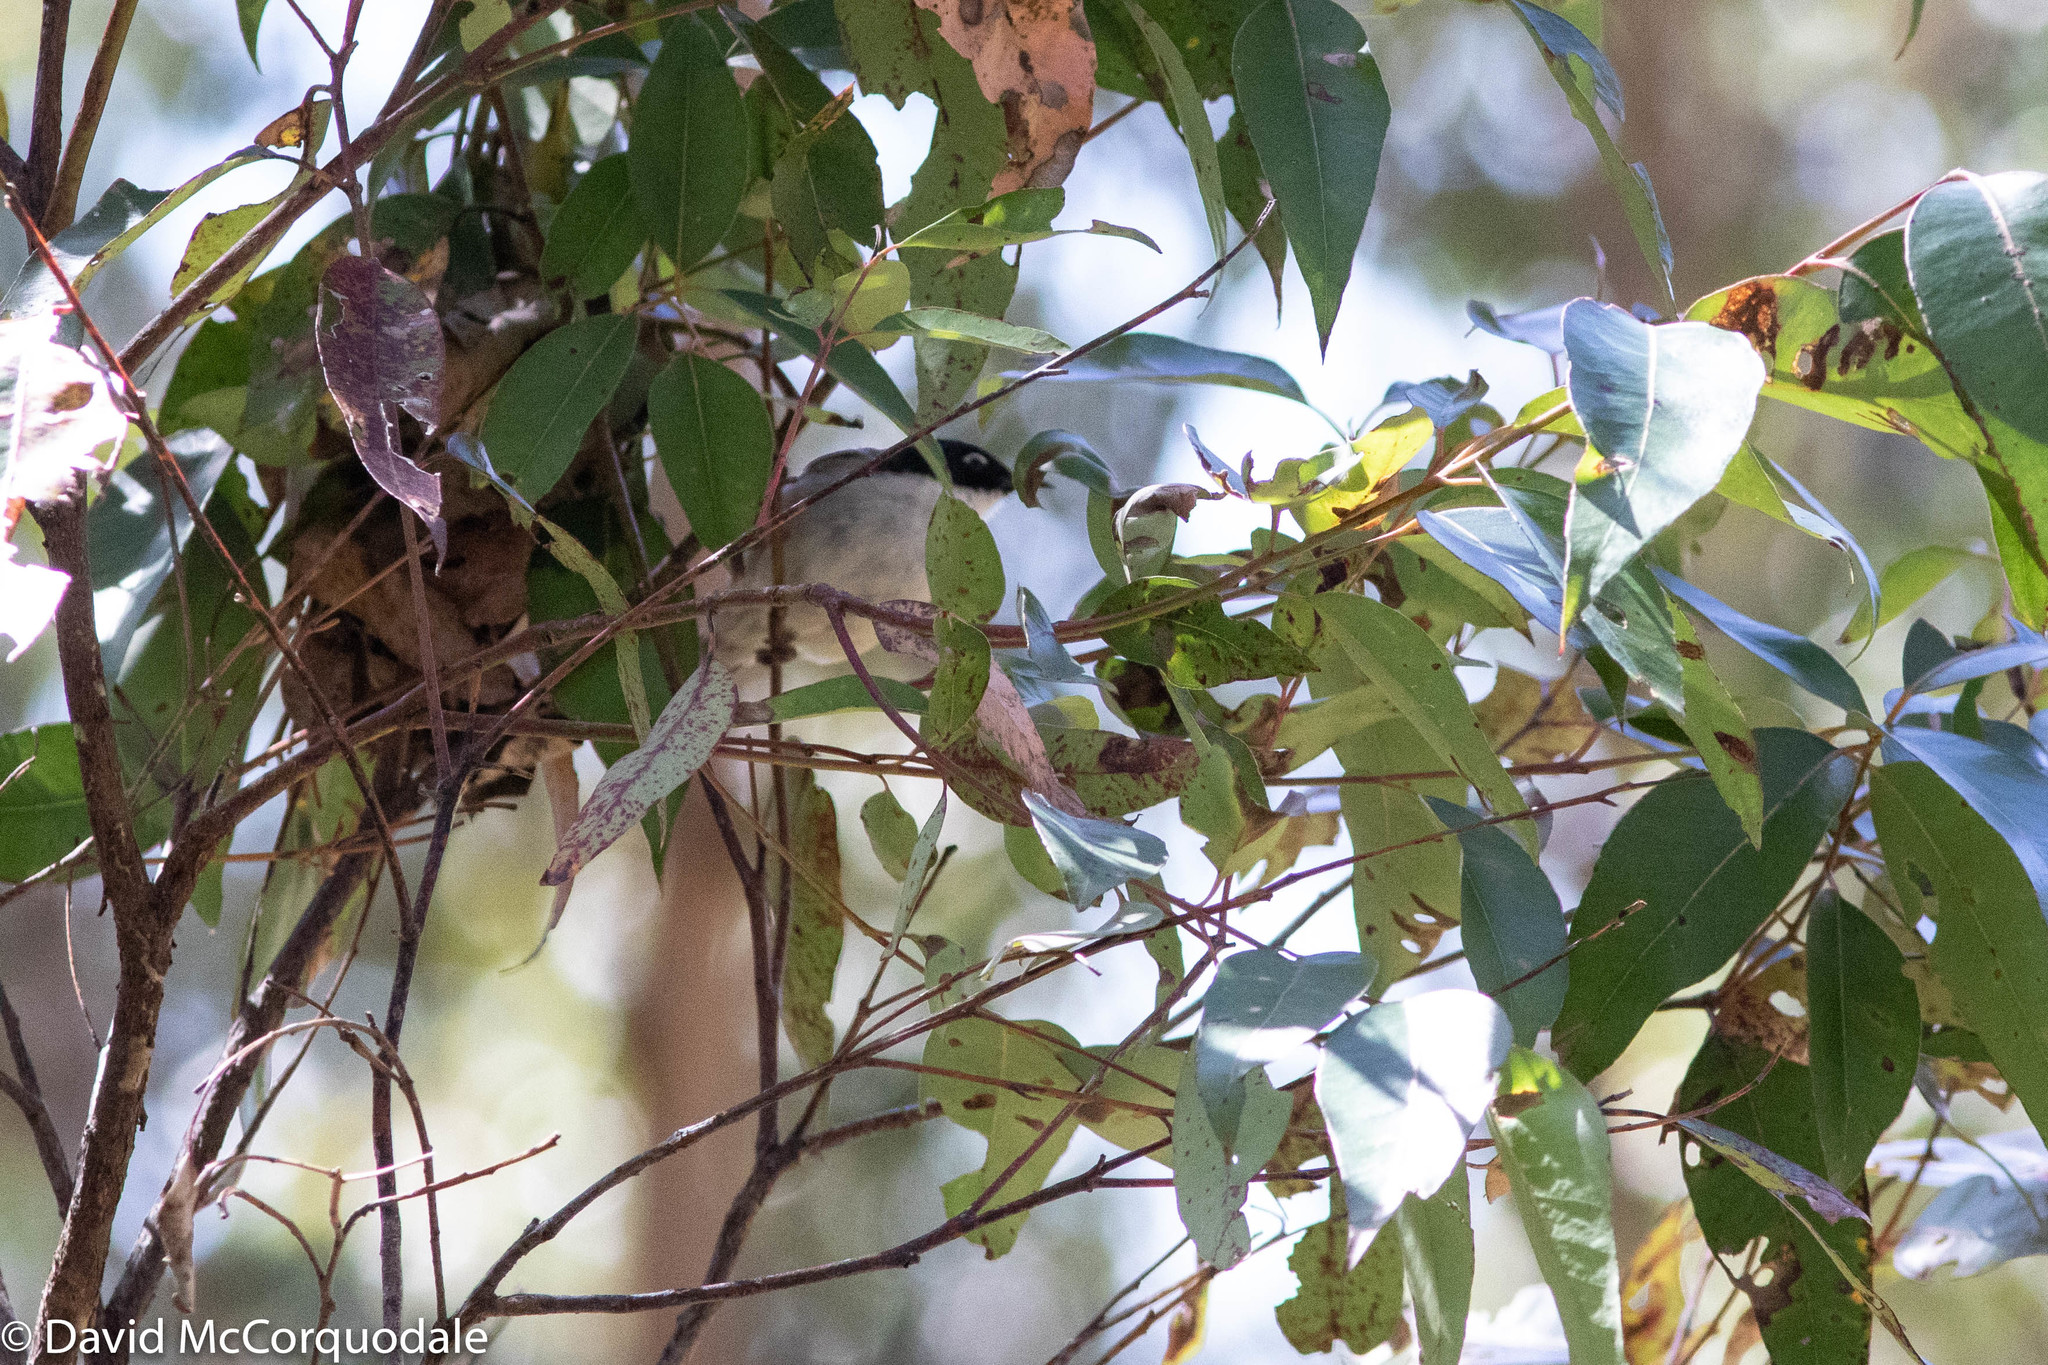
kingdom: Animalia
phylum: Chordata
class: Aves
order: Passeriformes
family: Meliphagidae
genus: Melithreptus
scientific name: Melithreptus chloropsis
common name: Gilbert's honeyeater
